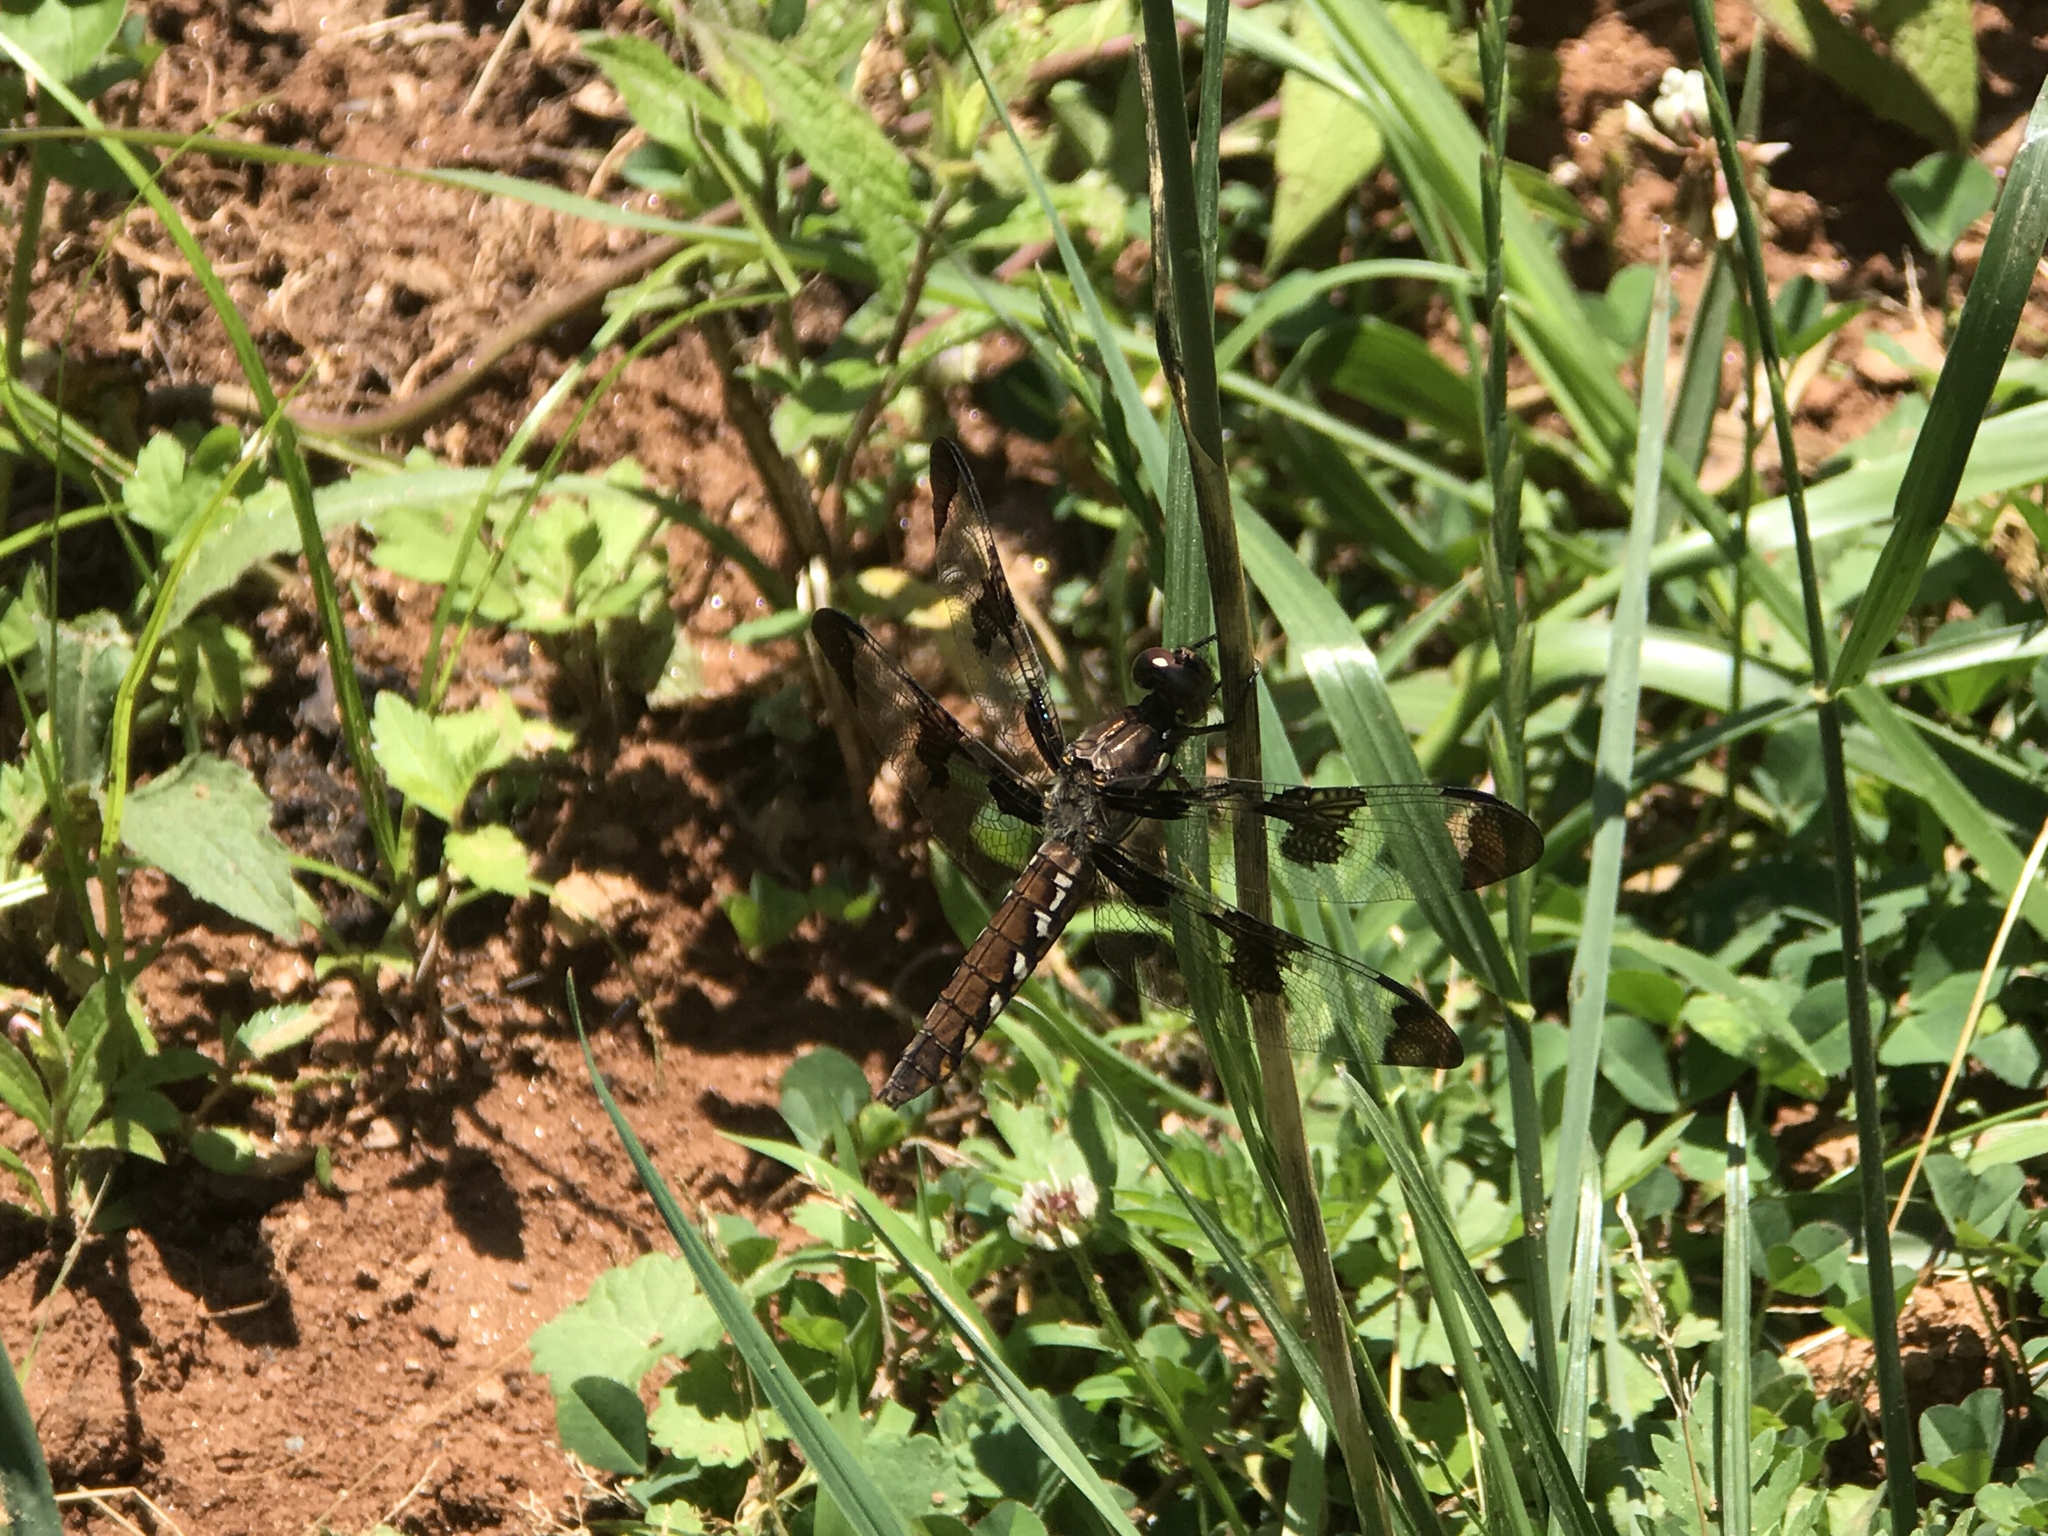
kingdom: Animalia
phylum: Arthropoda
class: Insecta
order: Odonata
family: Libellulidae
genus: Plathemis
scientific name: Plathemis lydia
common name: Common whitetail
